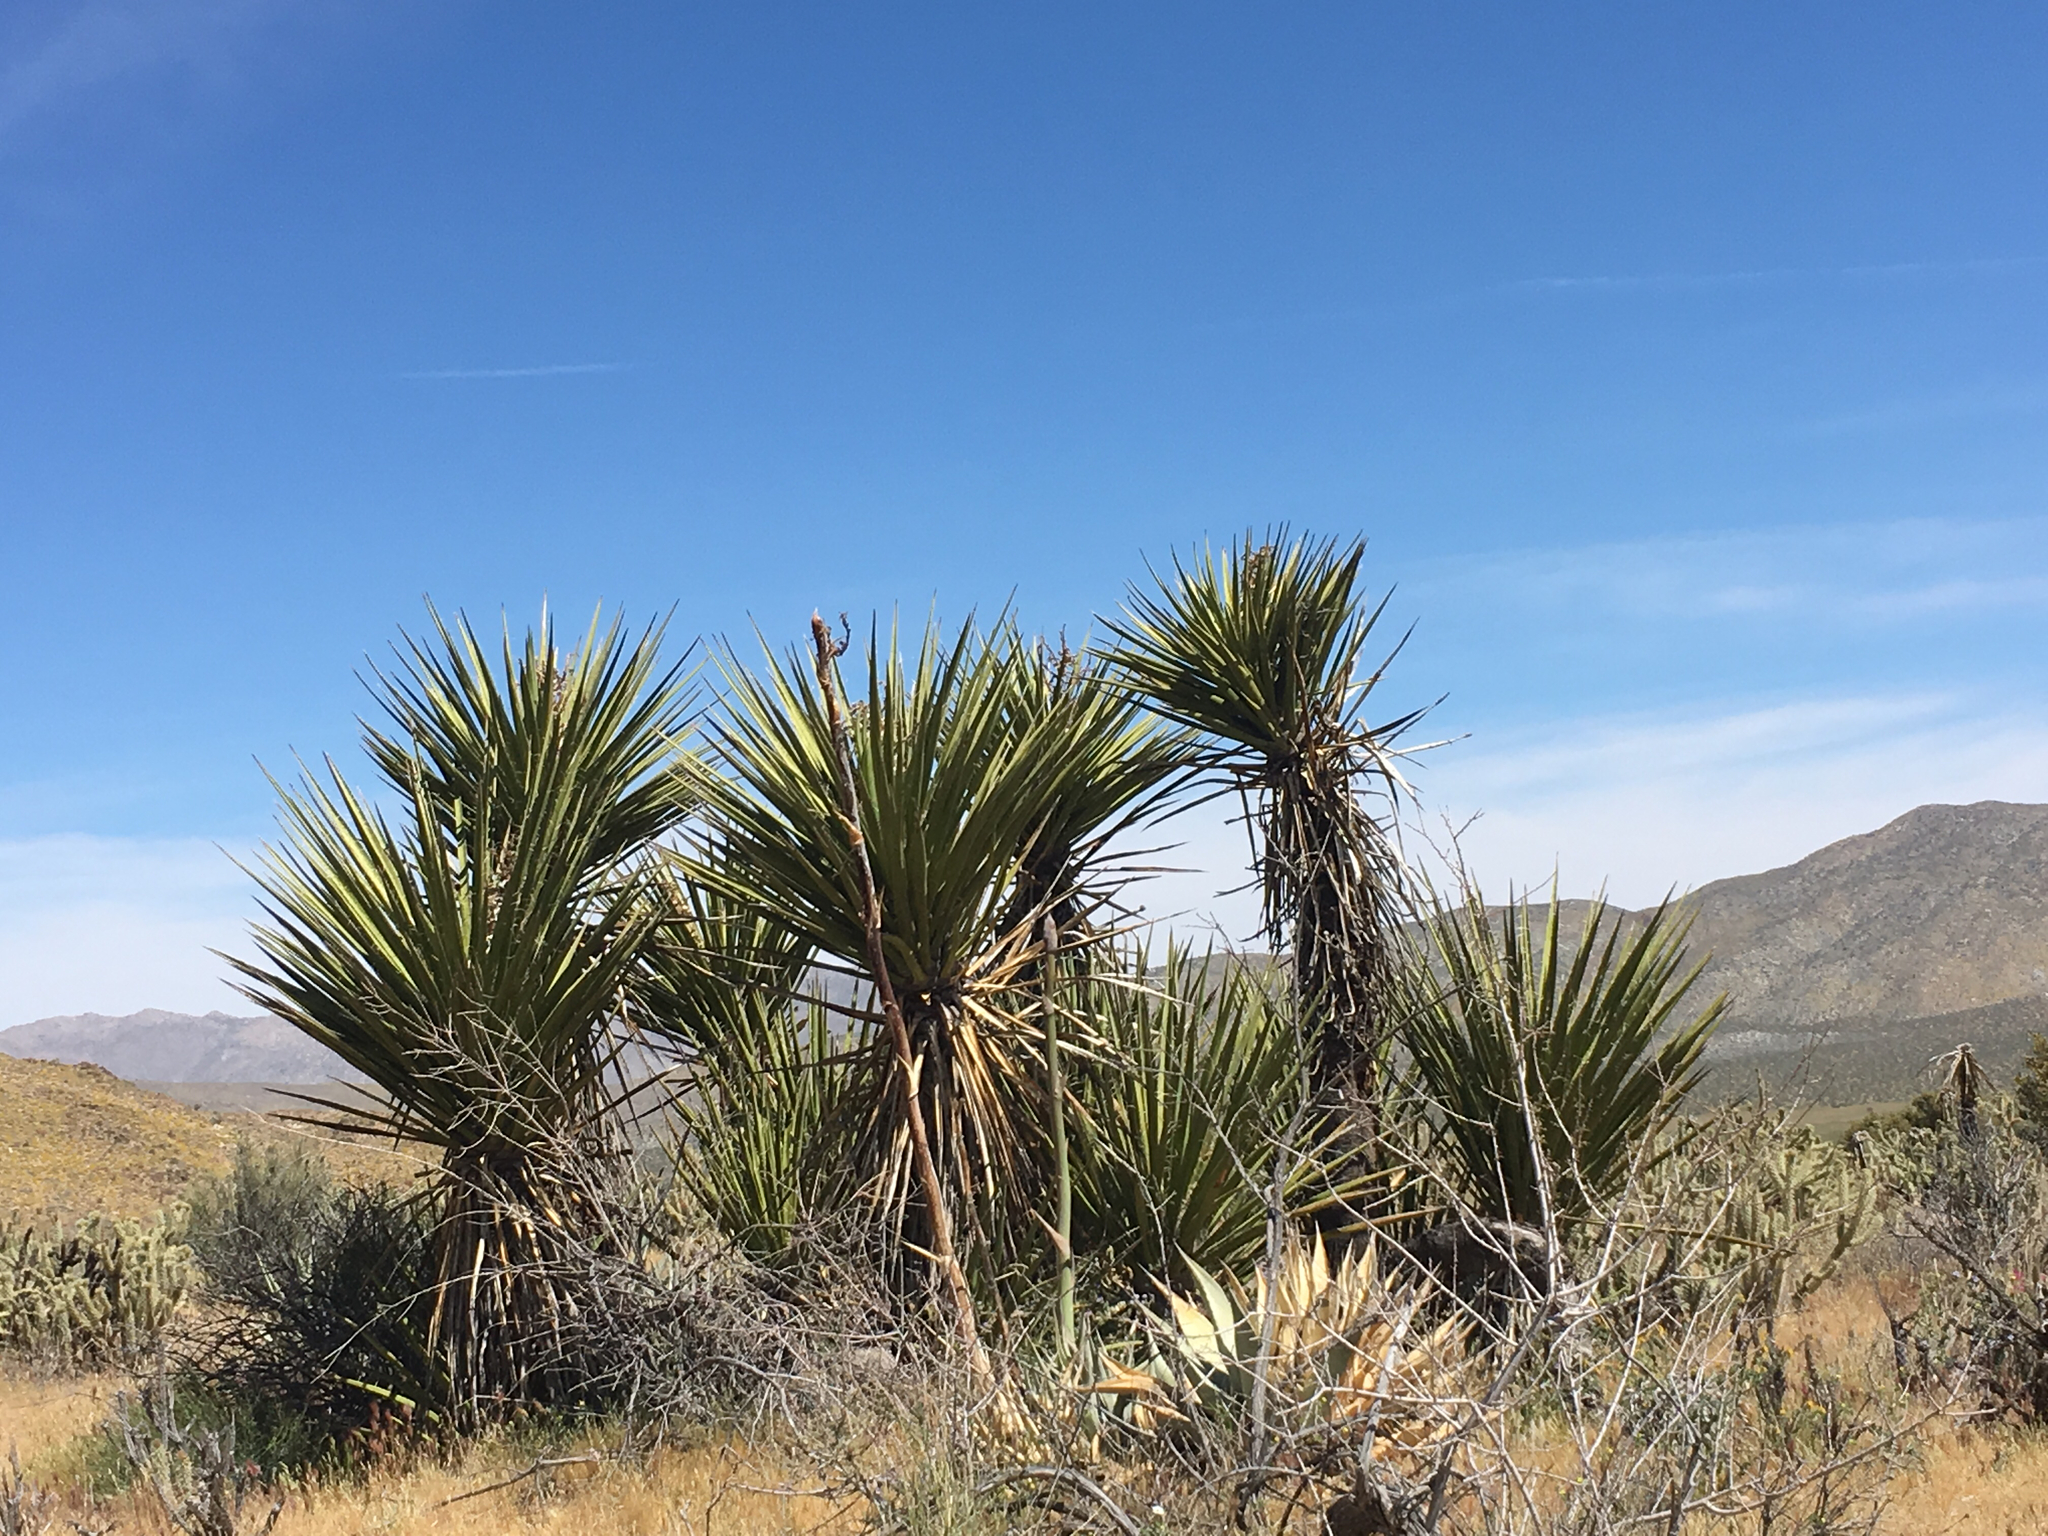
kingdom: Plantae
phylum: Tracheophyta
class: Liliopsida
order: Asparagales
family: Asparagaceae
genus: Yucca
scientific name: Yucca schidigera
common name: Mojave yucca
